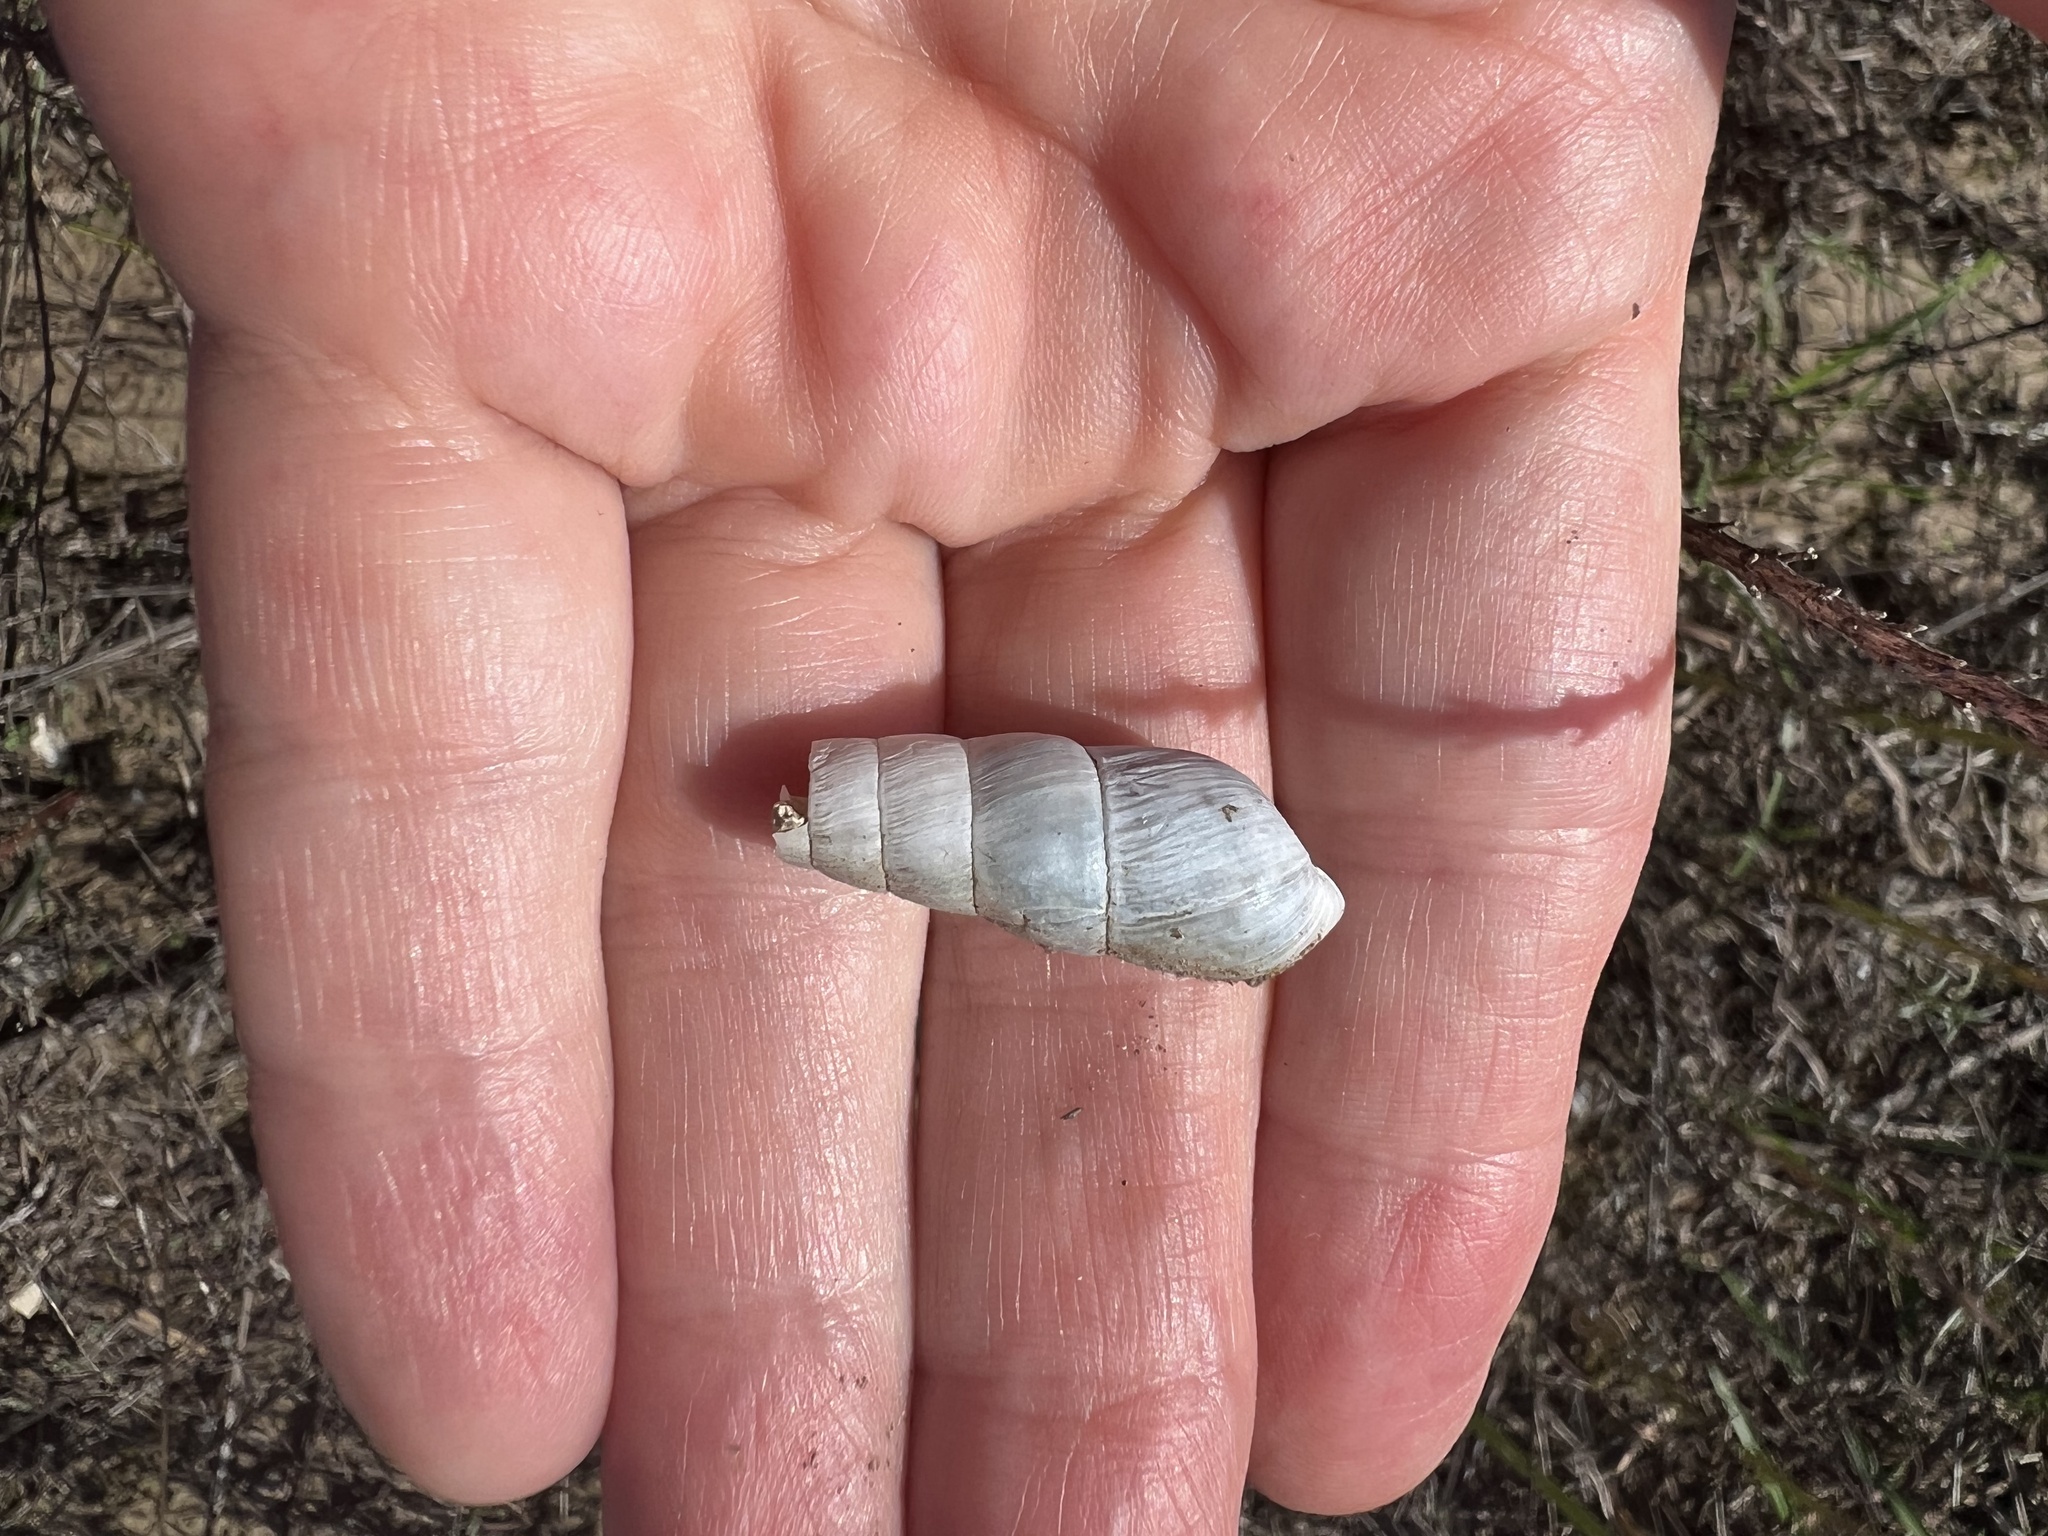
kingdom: Animalia
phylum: Mollusca
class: Gastropoda
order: Stylommatophora
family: Achatinidae
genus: Rumina
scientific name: Rumina decollata
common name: Decollate snail
